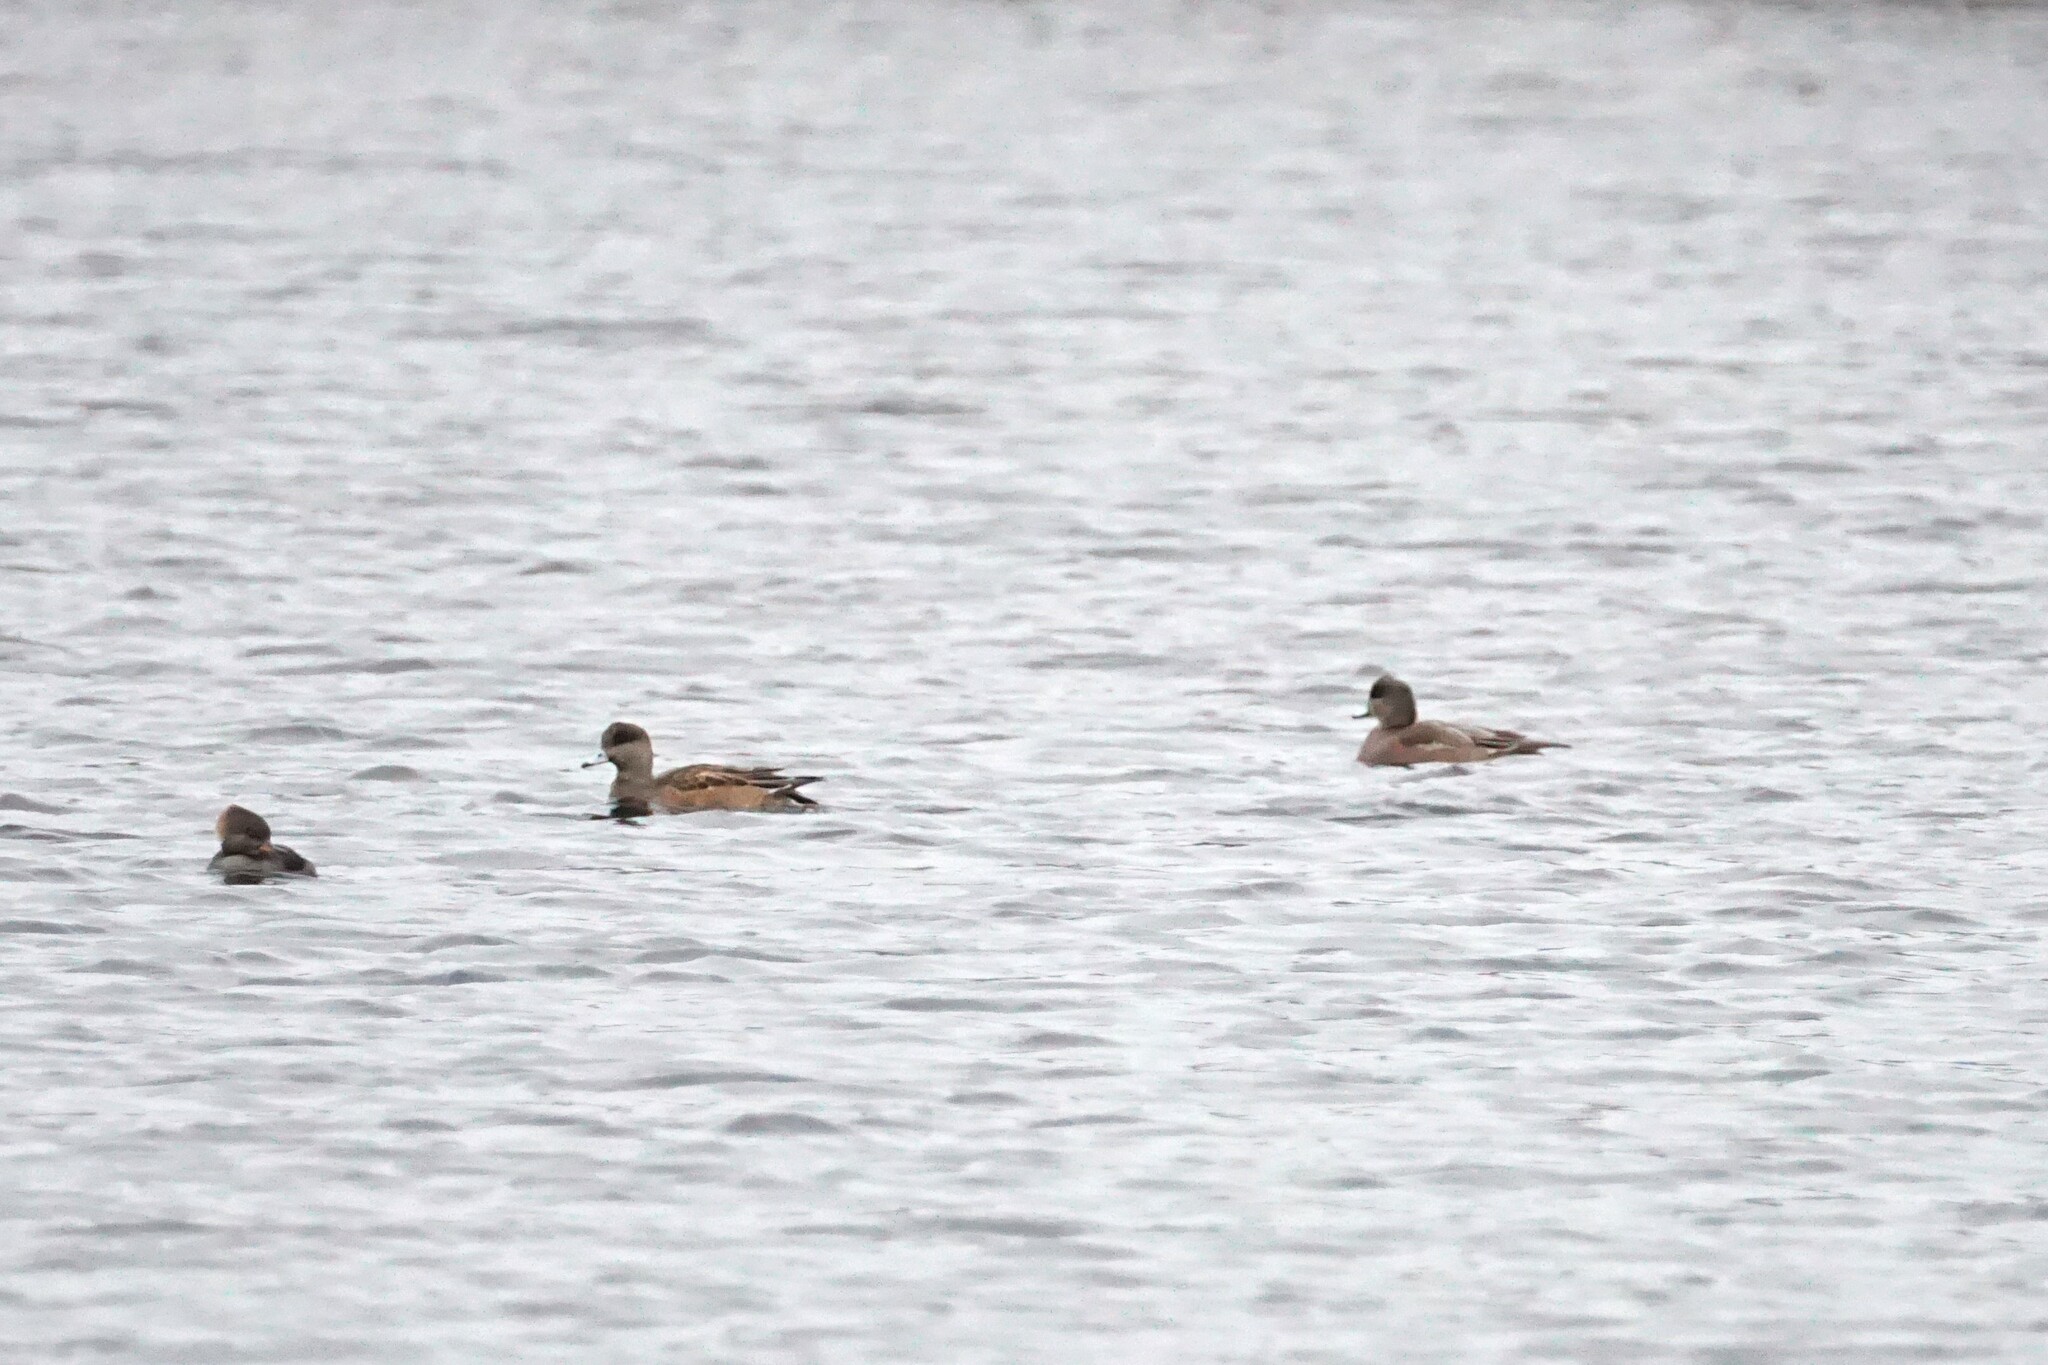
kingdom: Animalia
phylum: Chordata
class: Aves
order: Anseriformes
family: Anatidae
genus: Mareca
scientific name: Mareca americana
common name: American wigeon
